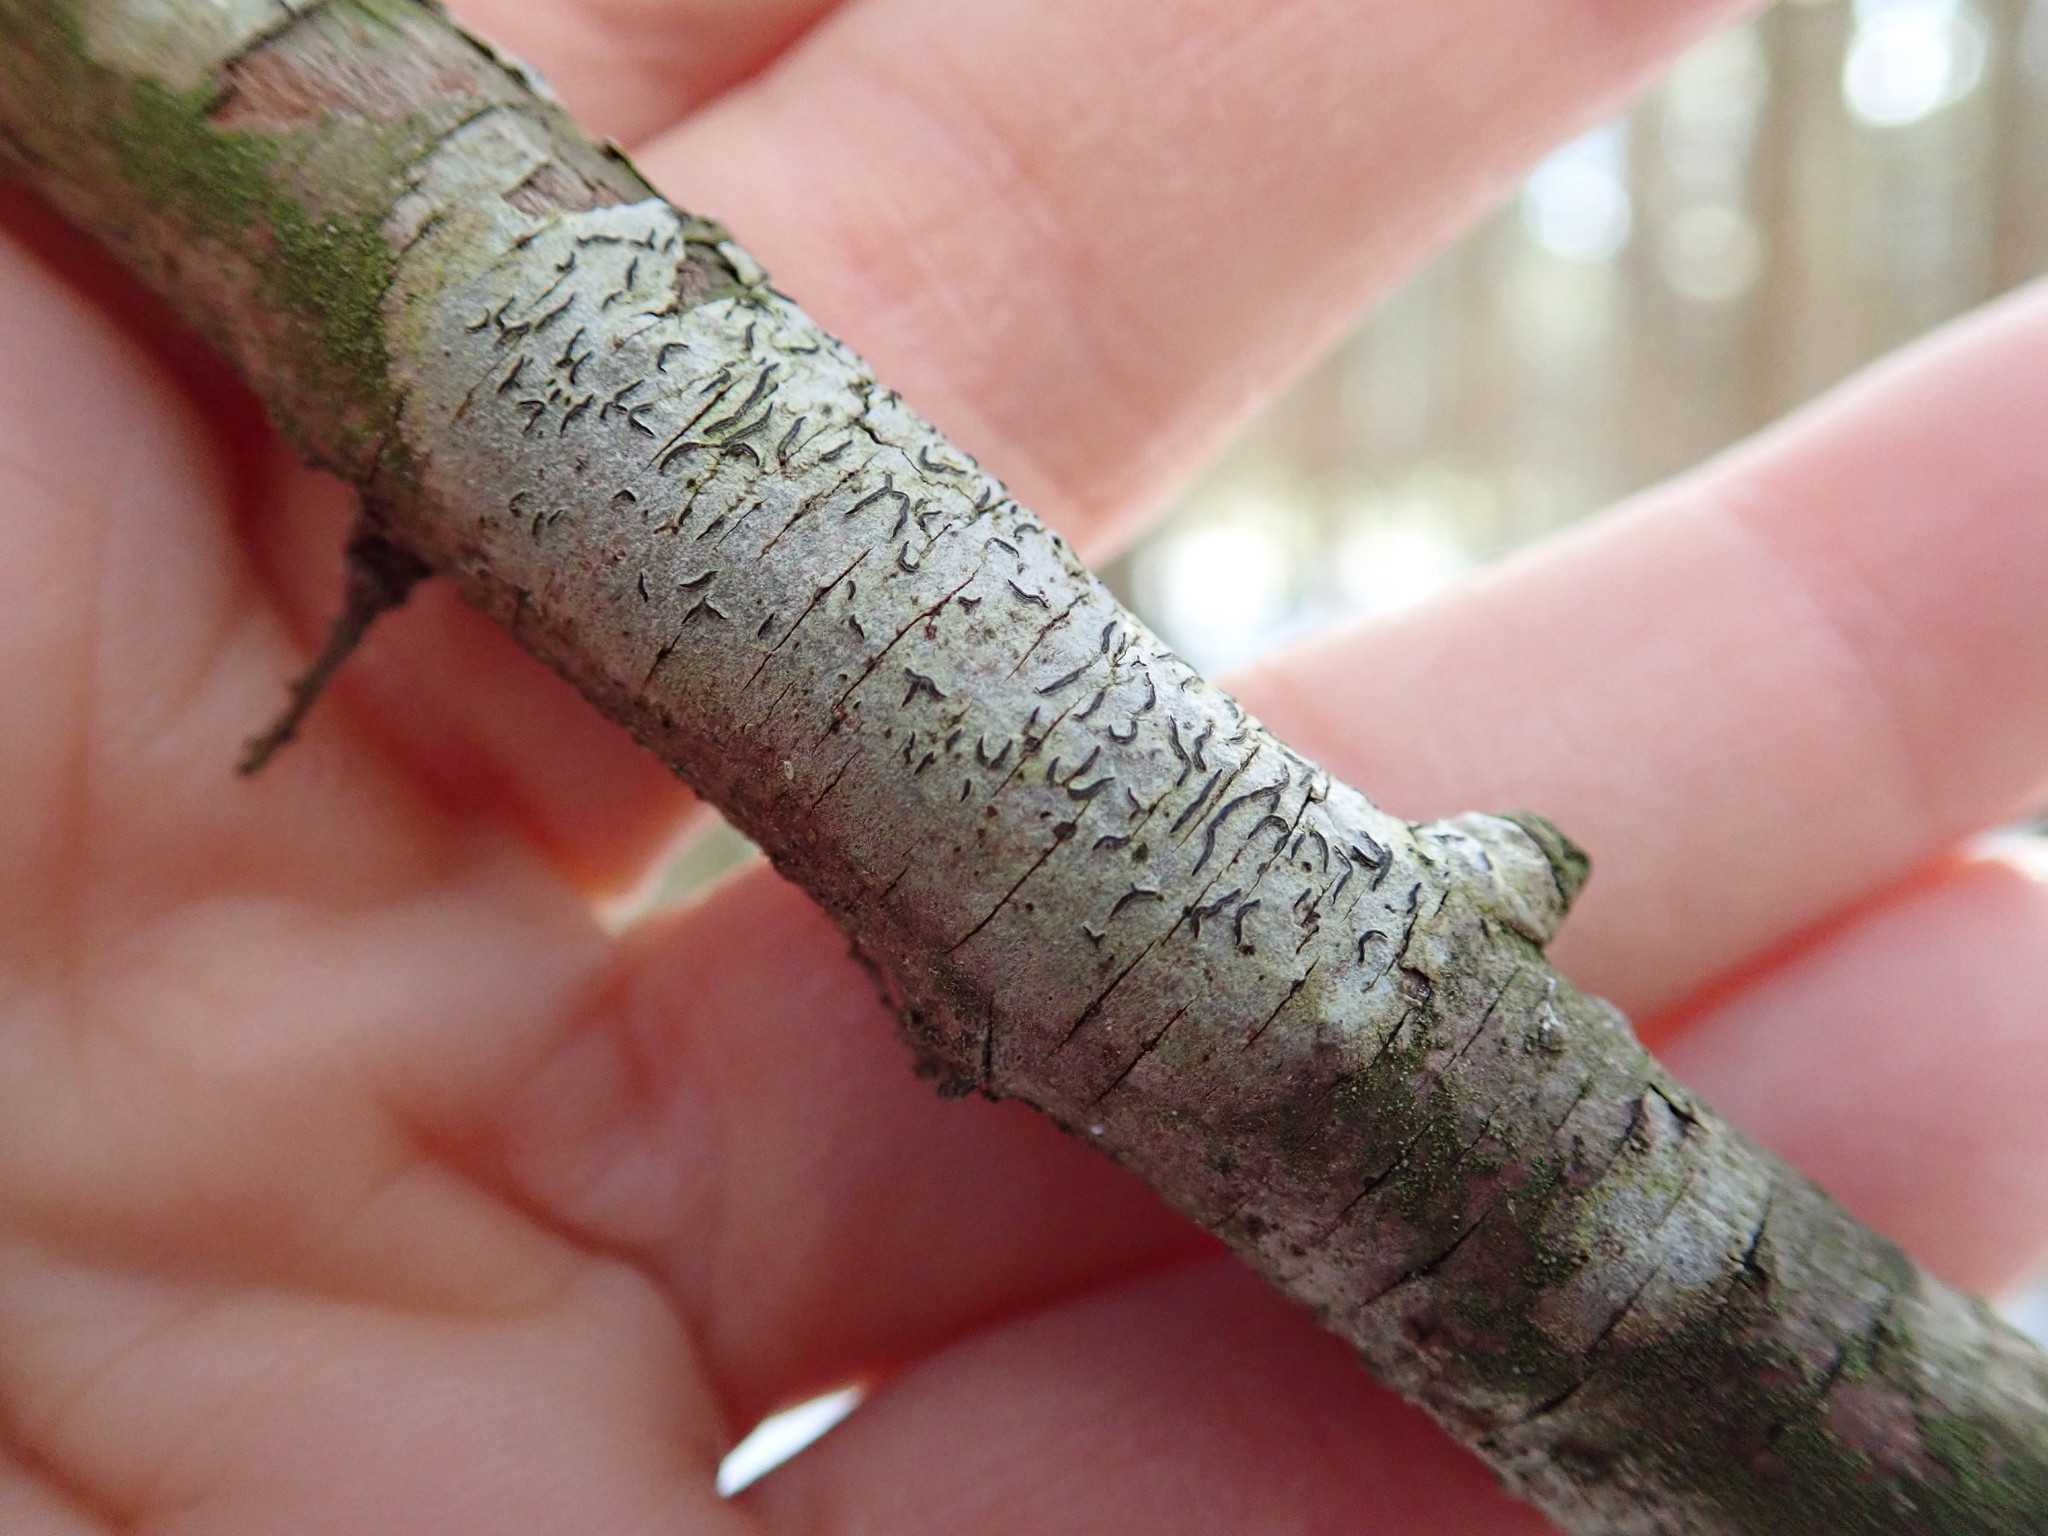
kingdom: Fungi
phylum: Ascomycota
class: Lecanoromycetes
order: Ostropales
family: Graphidaceae
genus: Graphis
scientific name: Graphis scripta
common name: Script lichen
